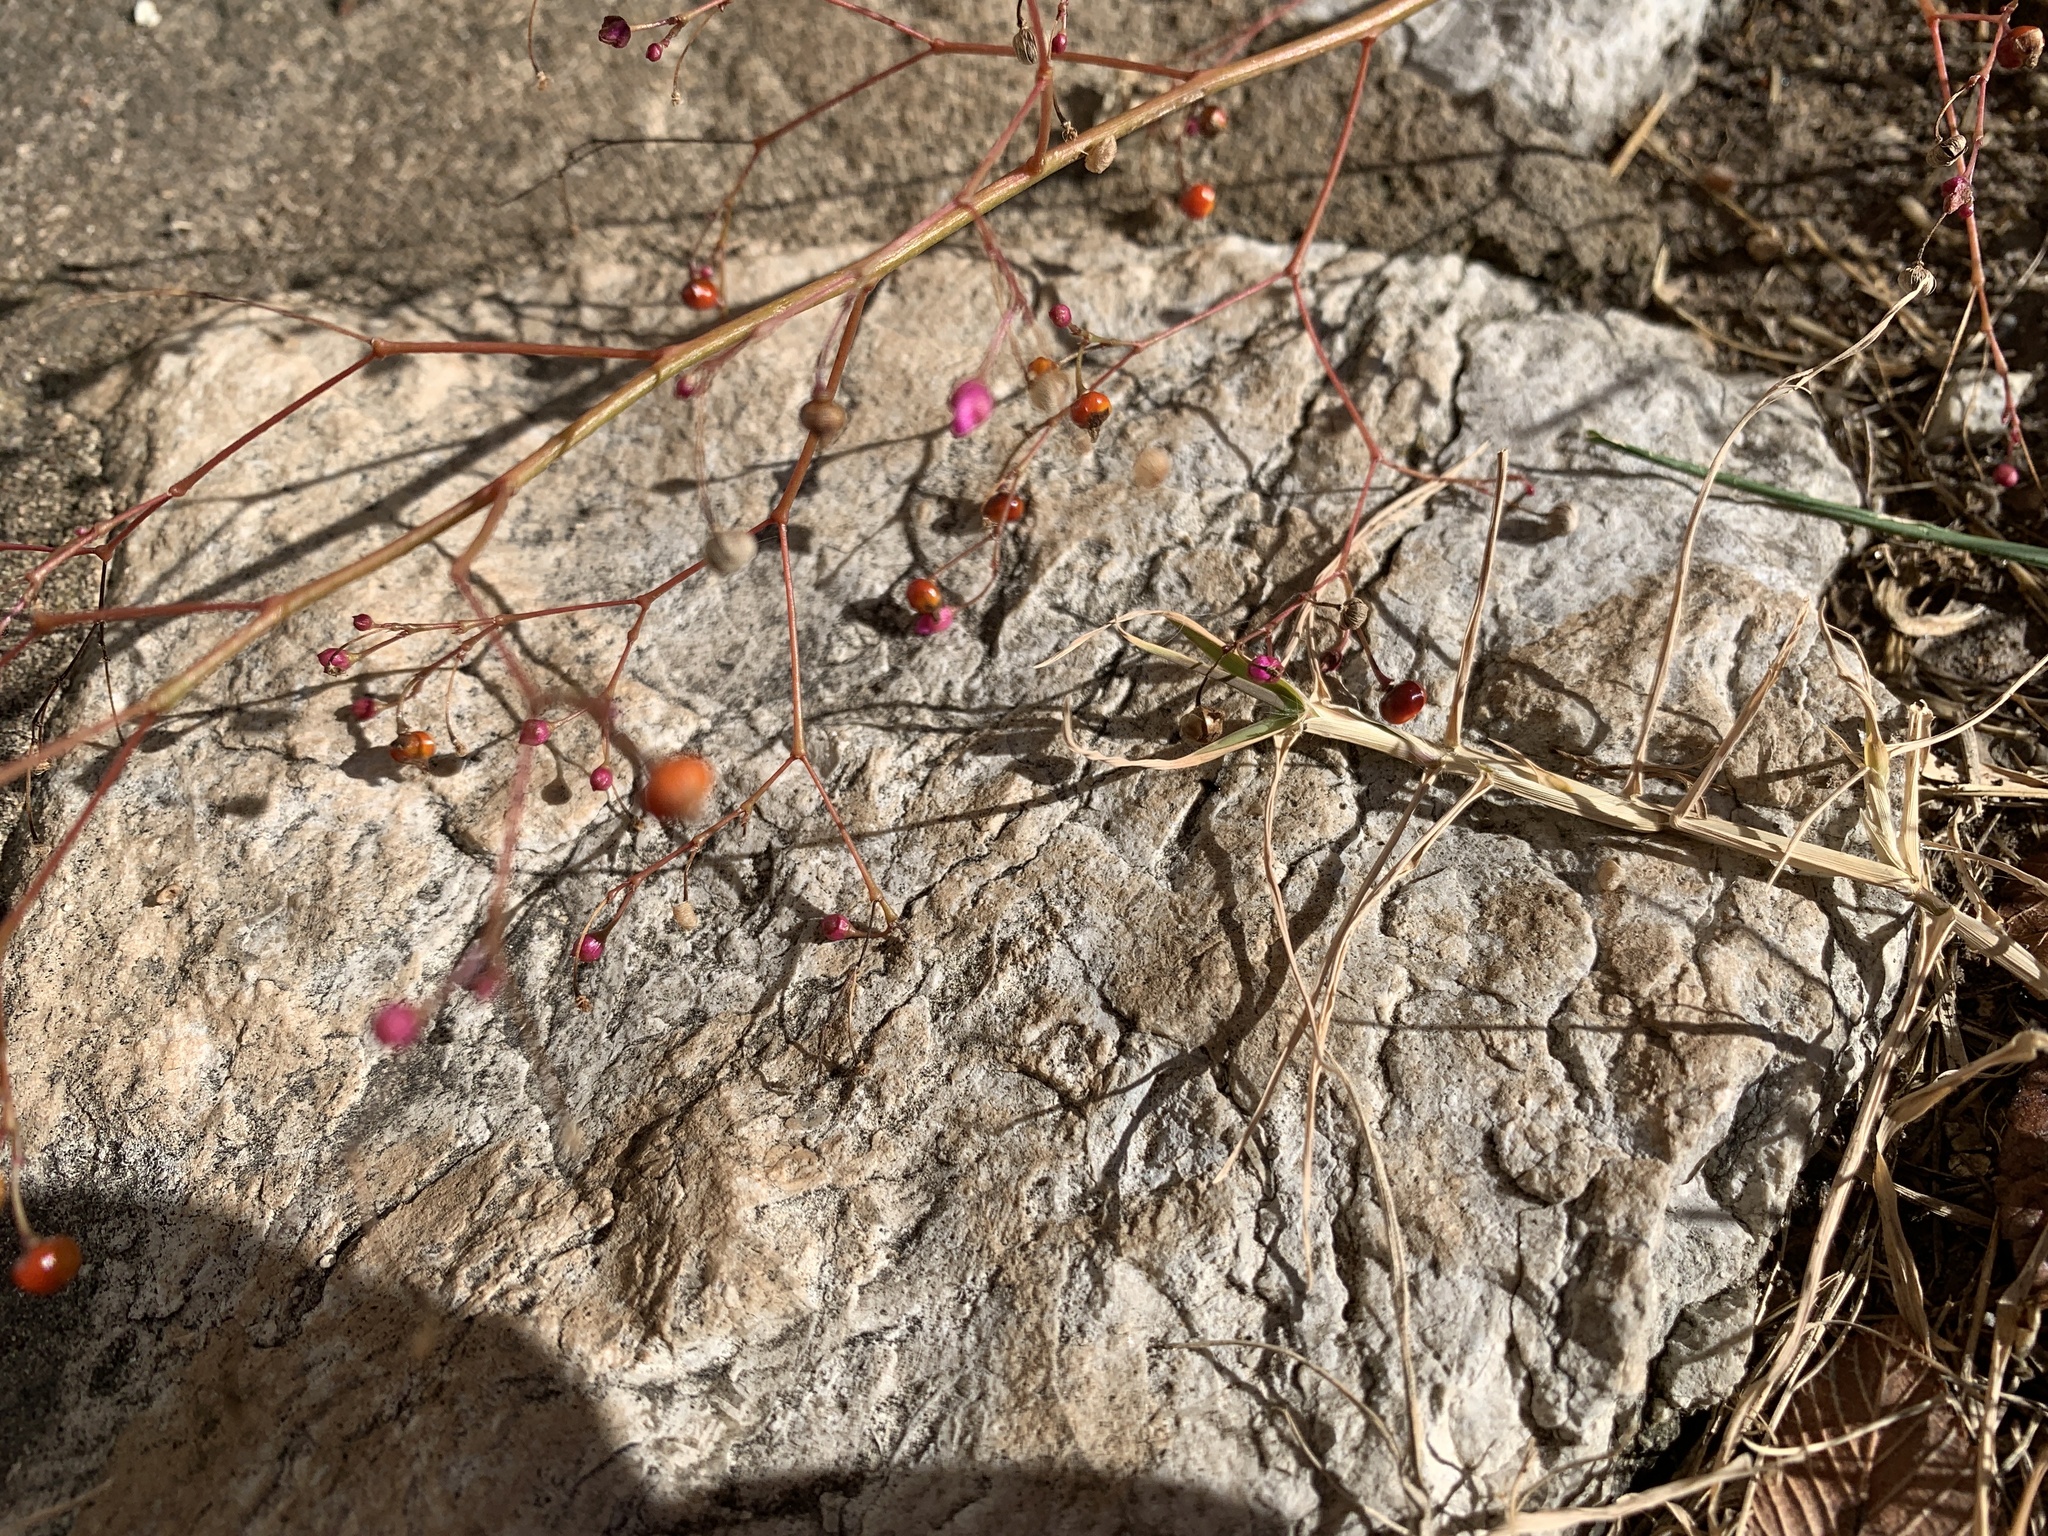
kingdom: Plantae
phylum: Tracheophyta
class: Magnoliopsida
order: Caryophyllales
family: Talinaceae
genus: Talinum
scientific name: Talinum paniculatum
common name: Jewels of opar
